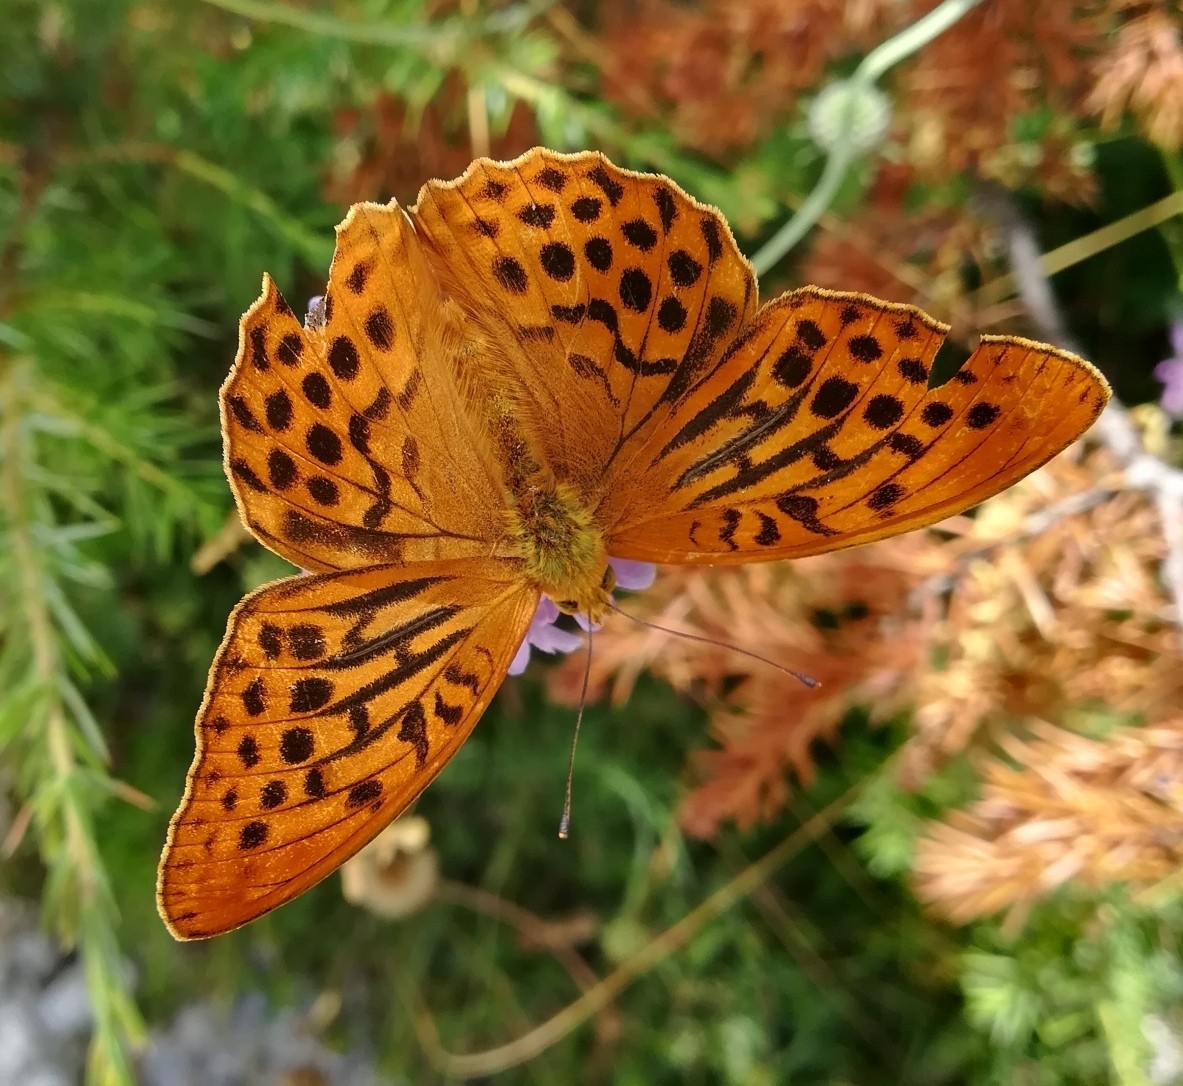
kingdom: Animalia
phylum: Arthropoda
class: Insecta
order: Lepidoptera
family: Nymphalidae
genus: Argynnis
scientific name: Argynnis paphia
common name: Silver-washed fritillary
